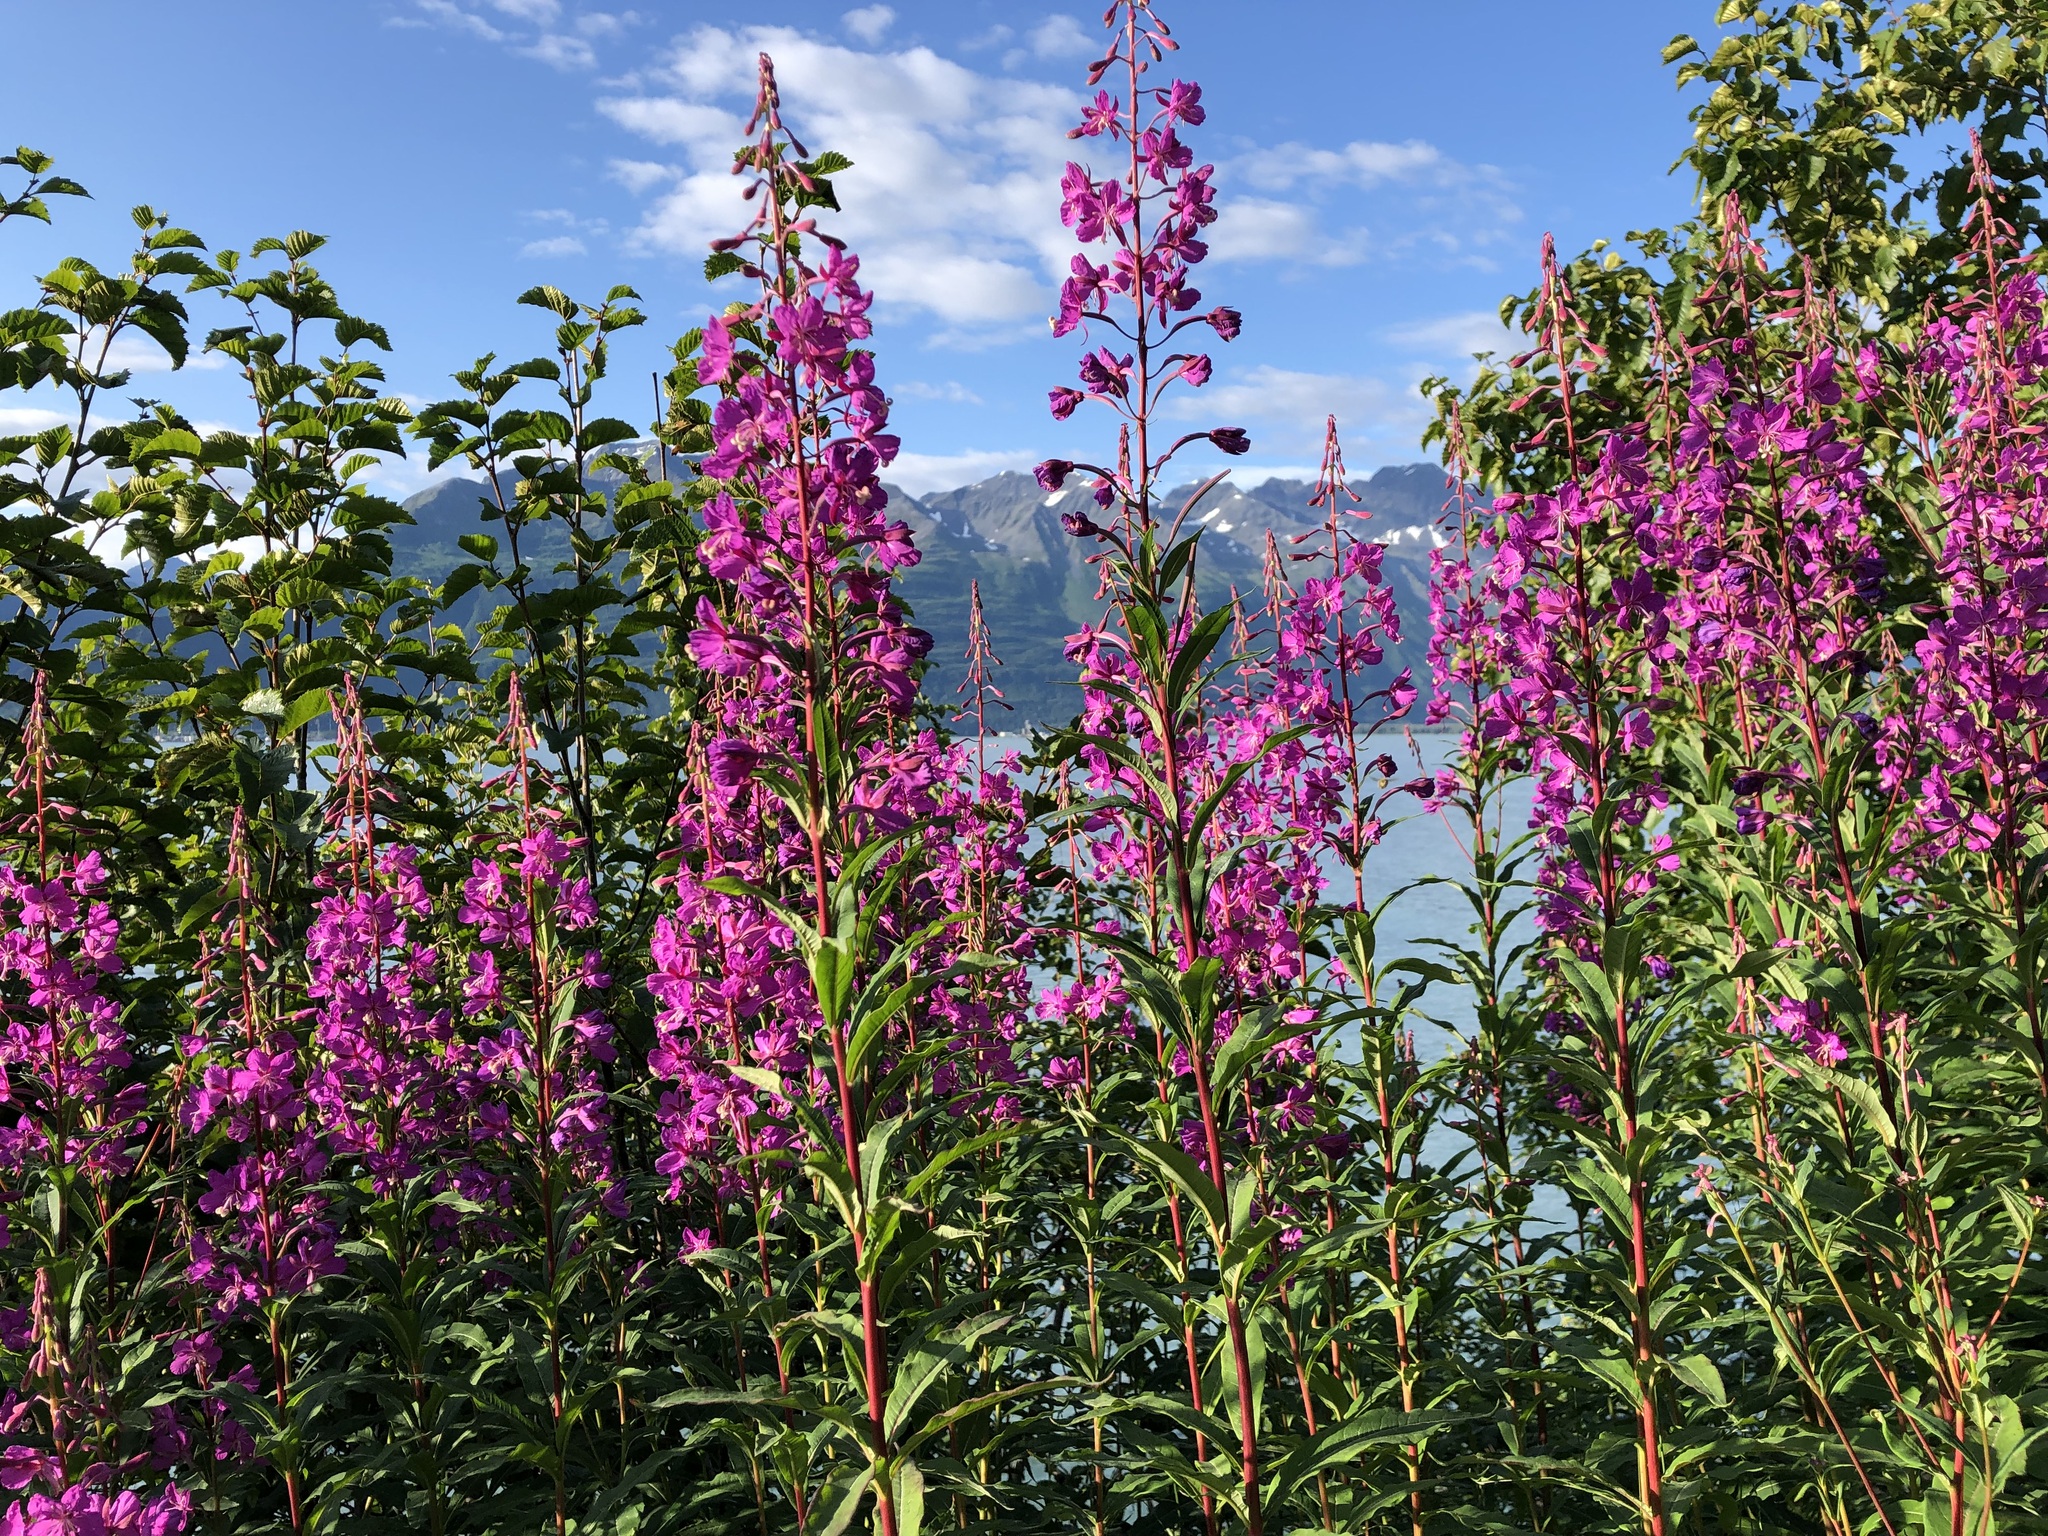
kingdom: Plantae
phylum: Tracheophyta
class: Magnoliopsida
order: Myrtales
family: Onagraceae
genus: Chamaenerion
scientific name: Chamaenerion angustifolium
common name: Fireweed
